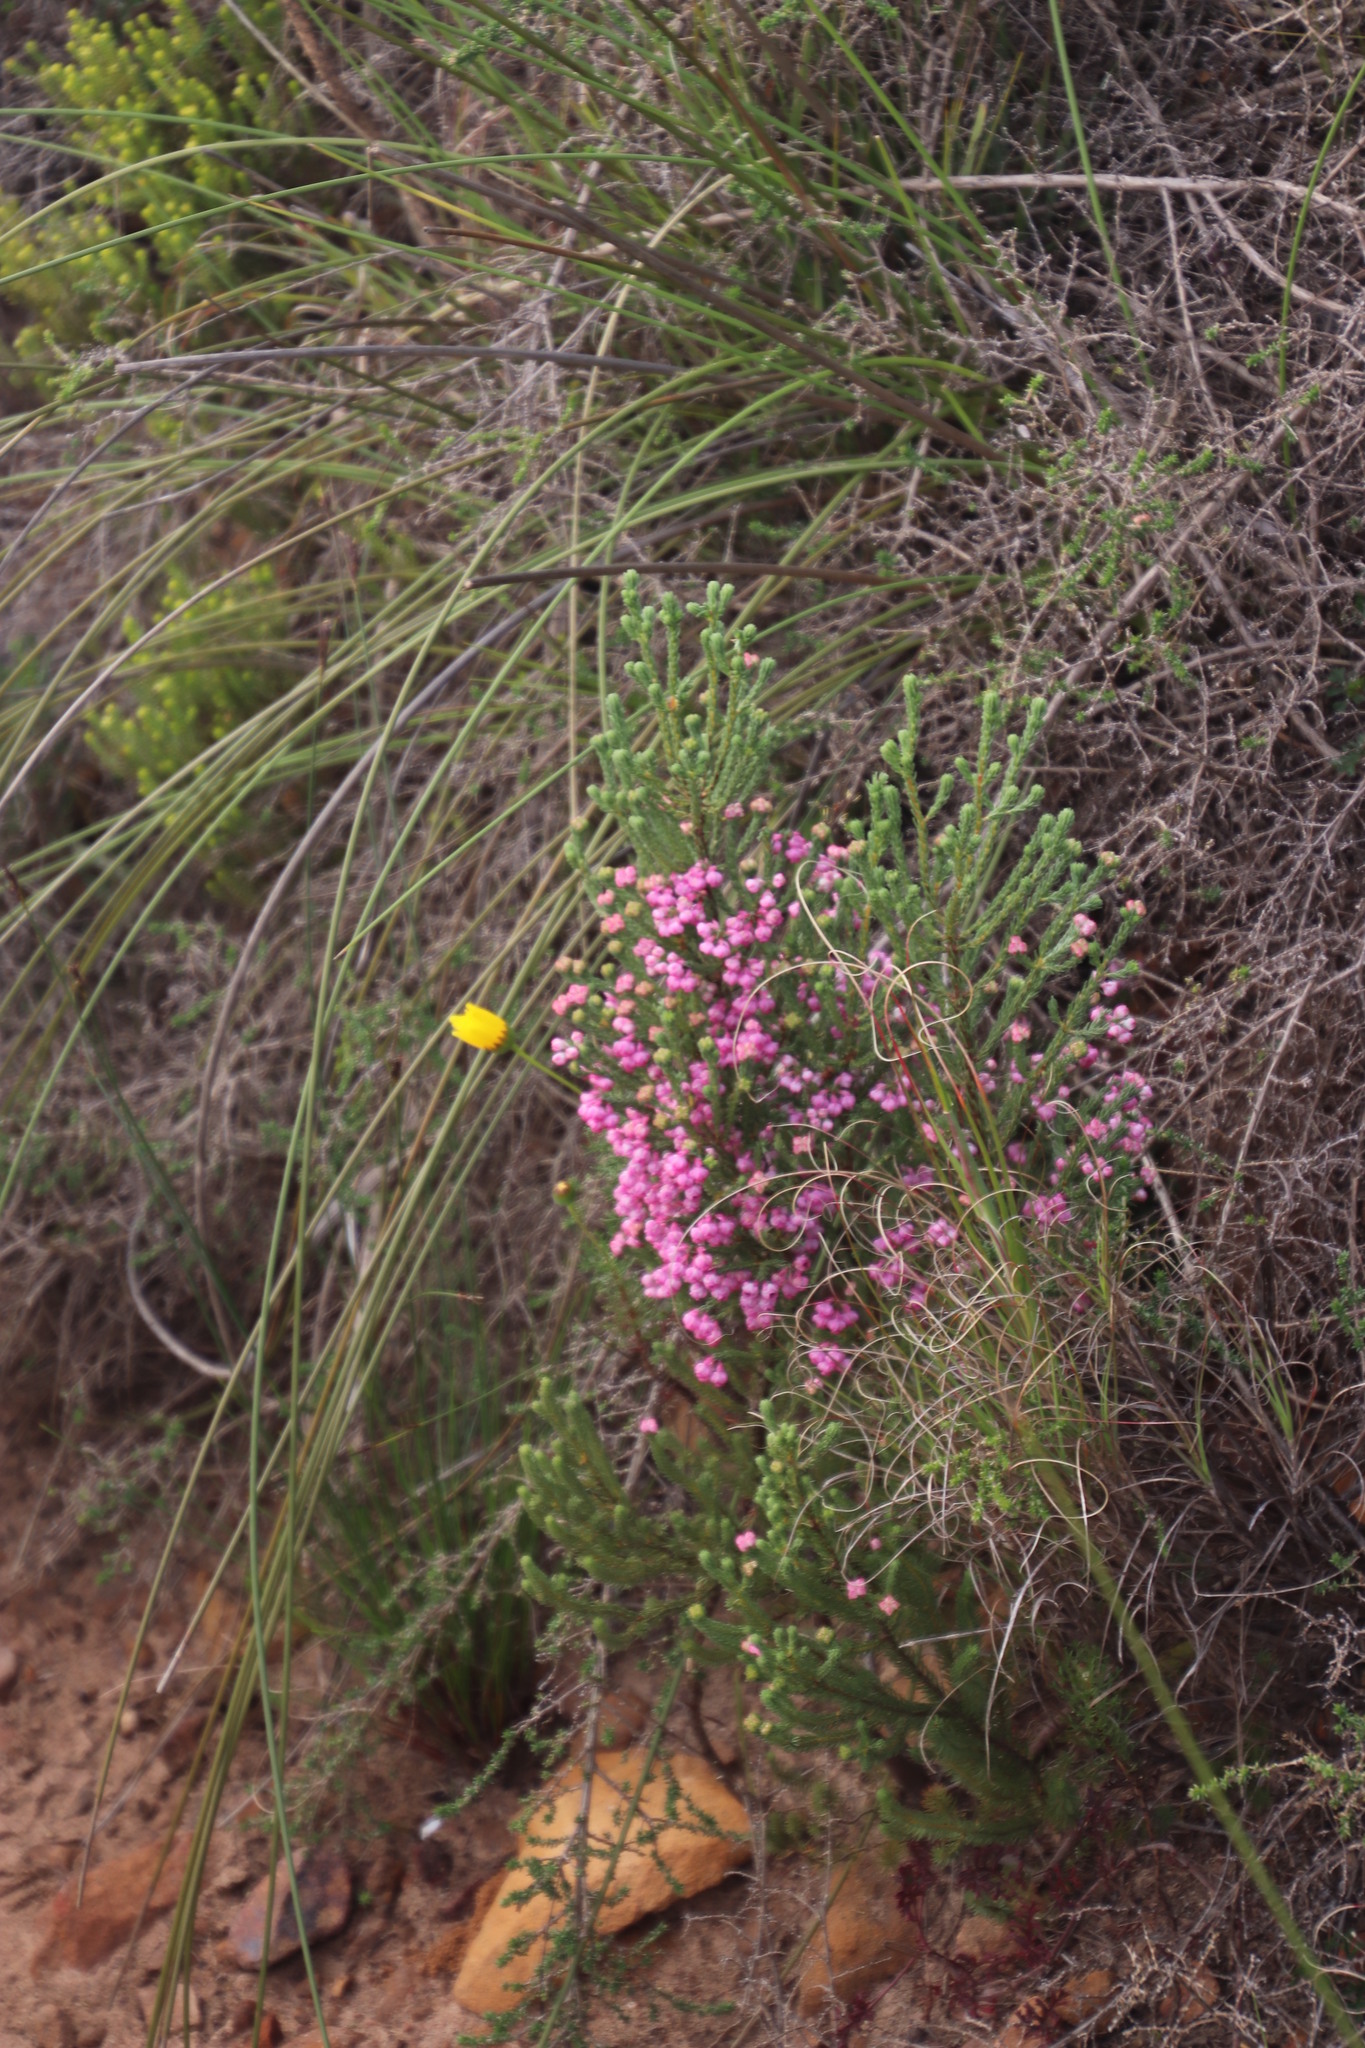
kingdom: Plantae
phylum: Tracheophyta
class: Magnoliopsida
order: Ericales
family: Ericaceae
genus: Erica
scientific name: Erica baccans
